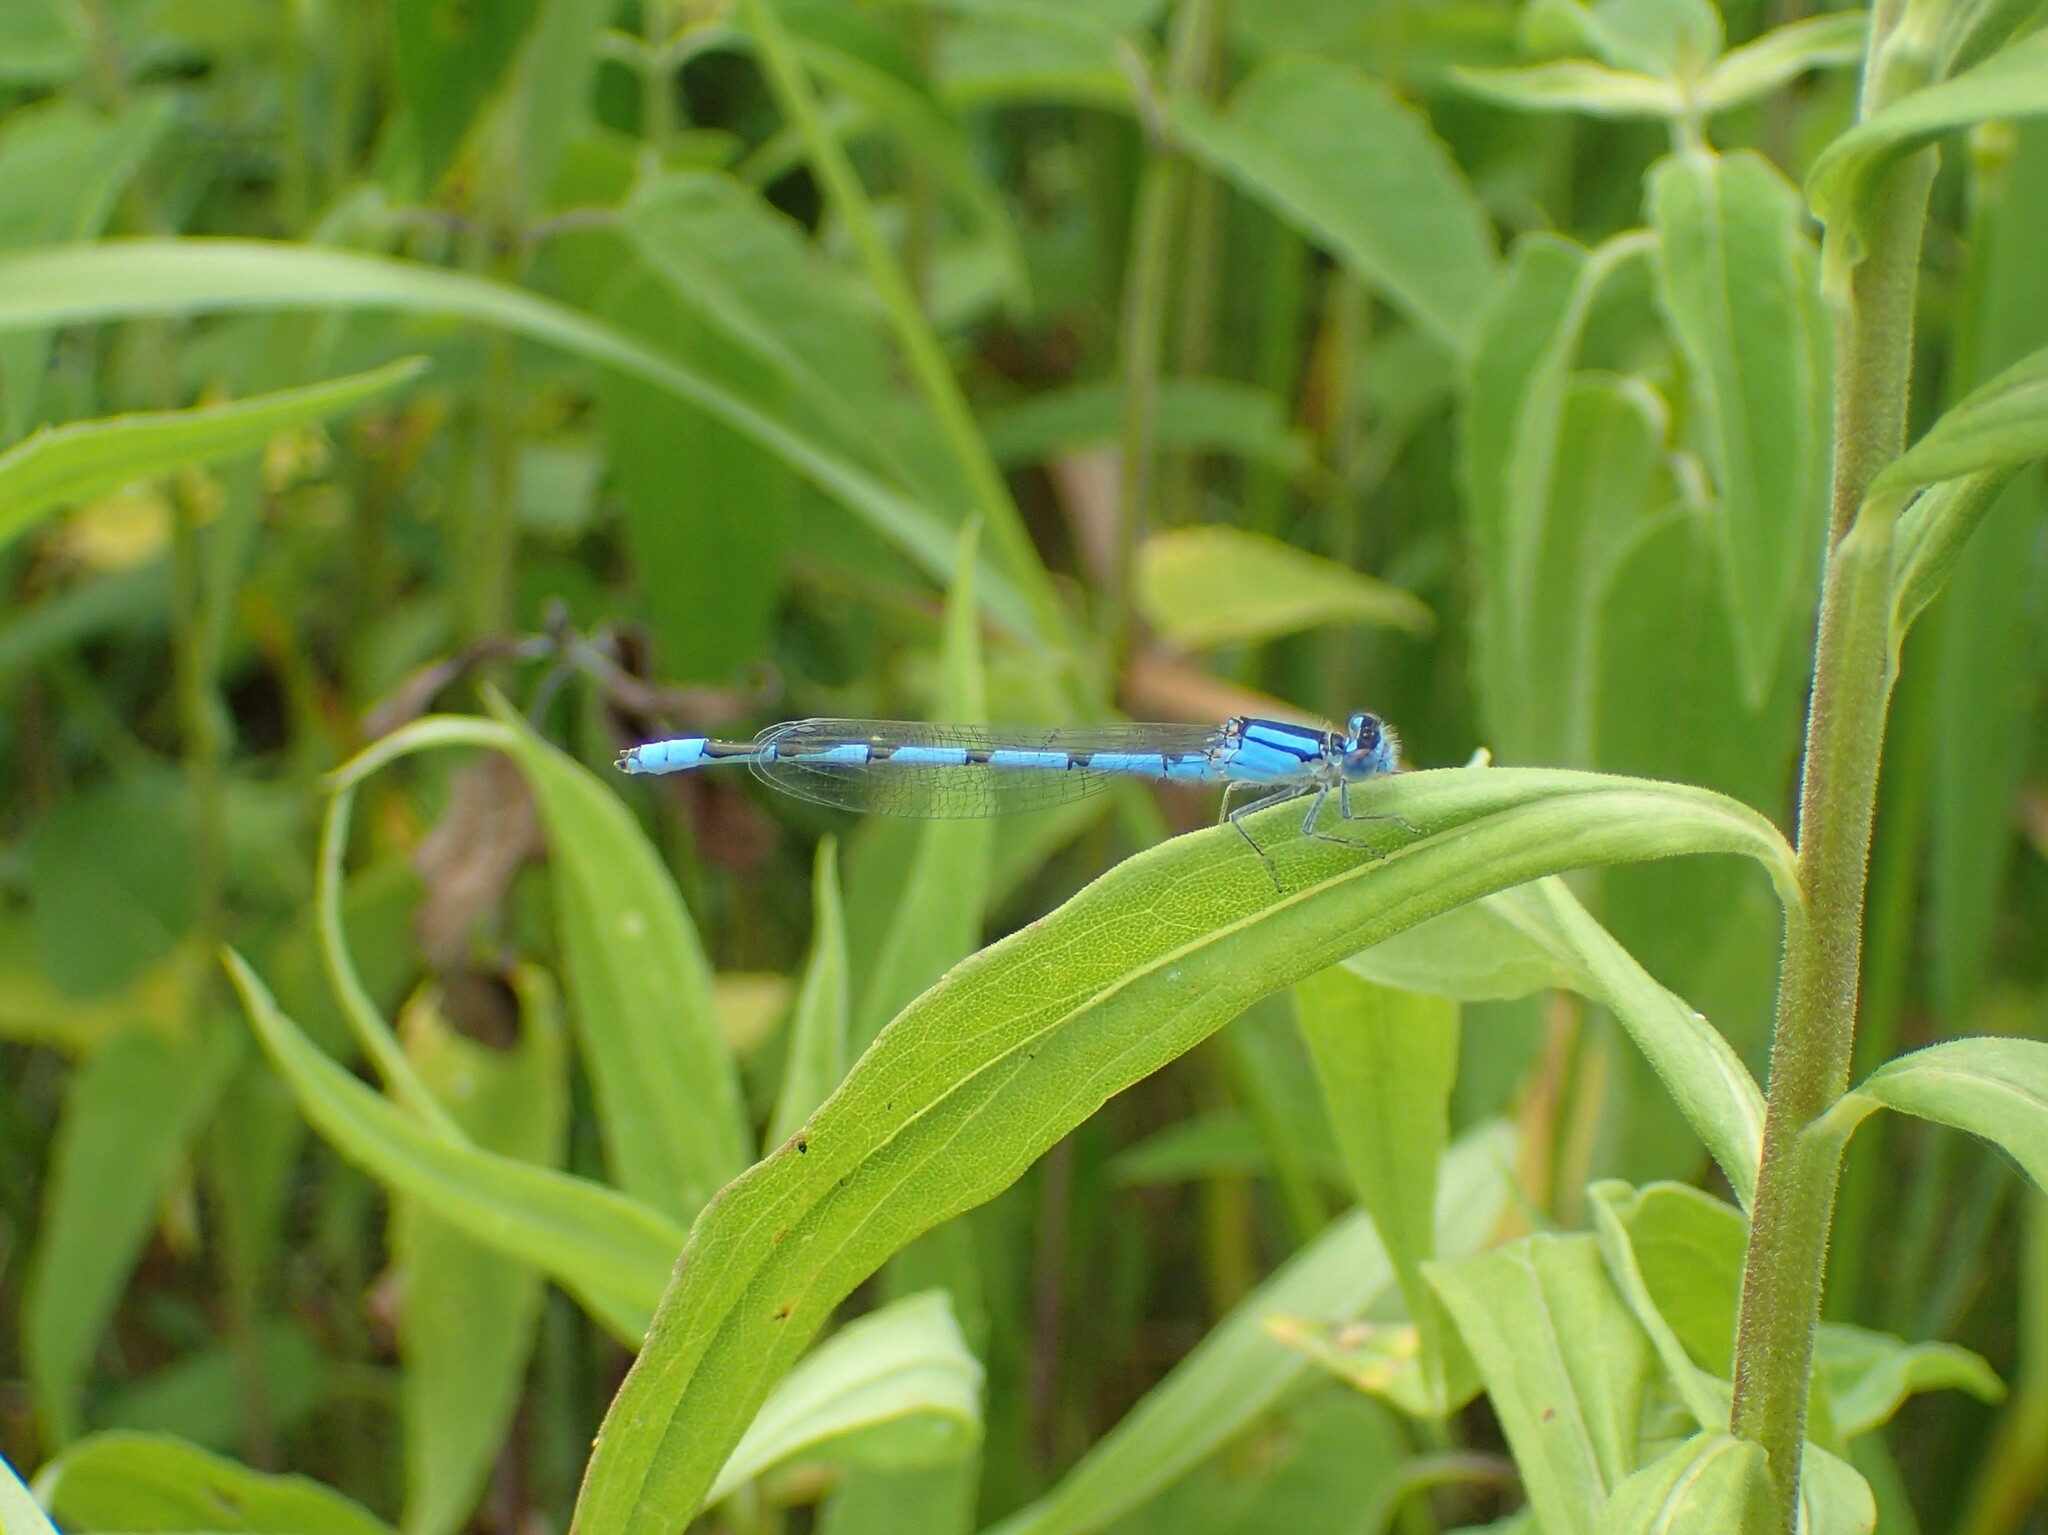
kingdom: Animalia
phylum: Arthropoda
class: Insecta
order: Odonata
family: Coenagrionidae
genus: Enallagma
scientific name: Enallagma civile
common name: Damselfly
